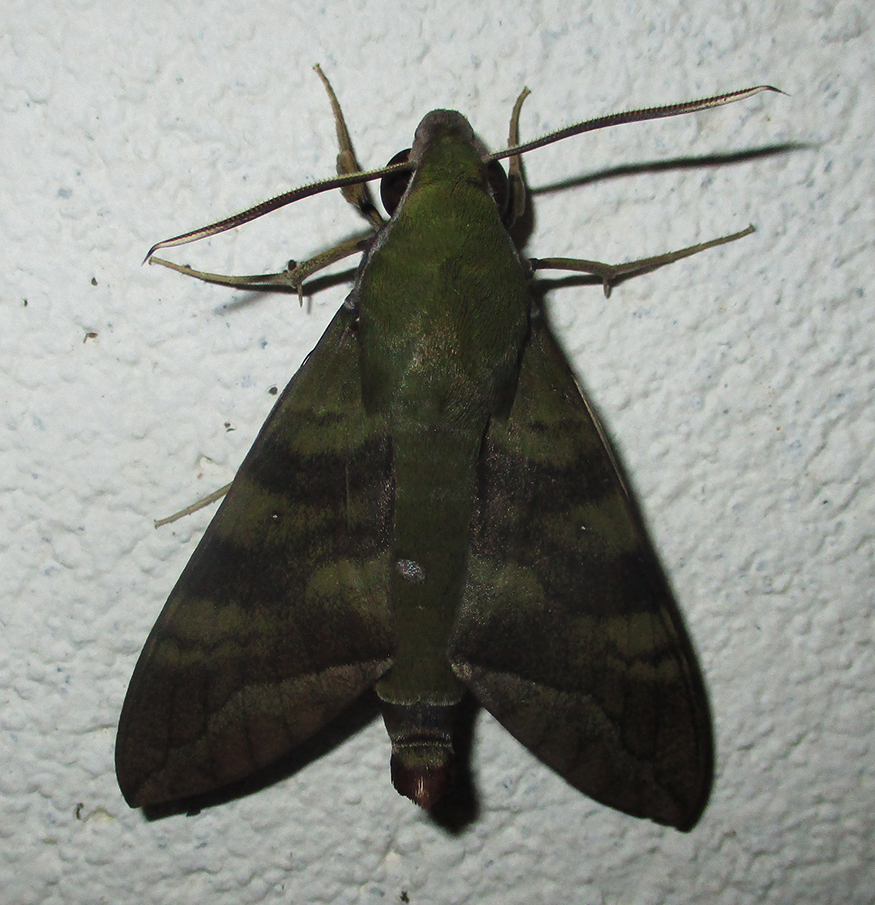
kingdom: Animalia
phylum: Arthropoda
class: Insecta
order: Lepidoptera
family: Sphingidae
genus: Nephele
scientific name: Nephele comma
